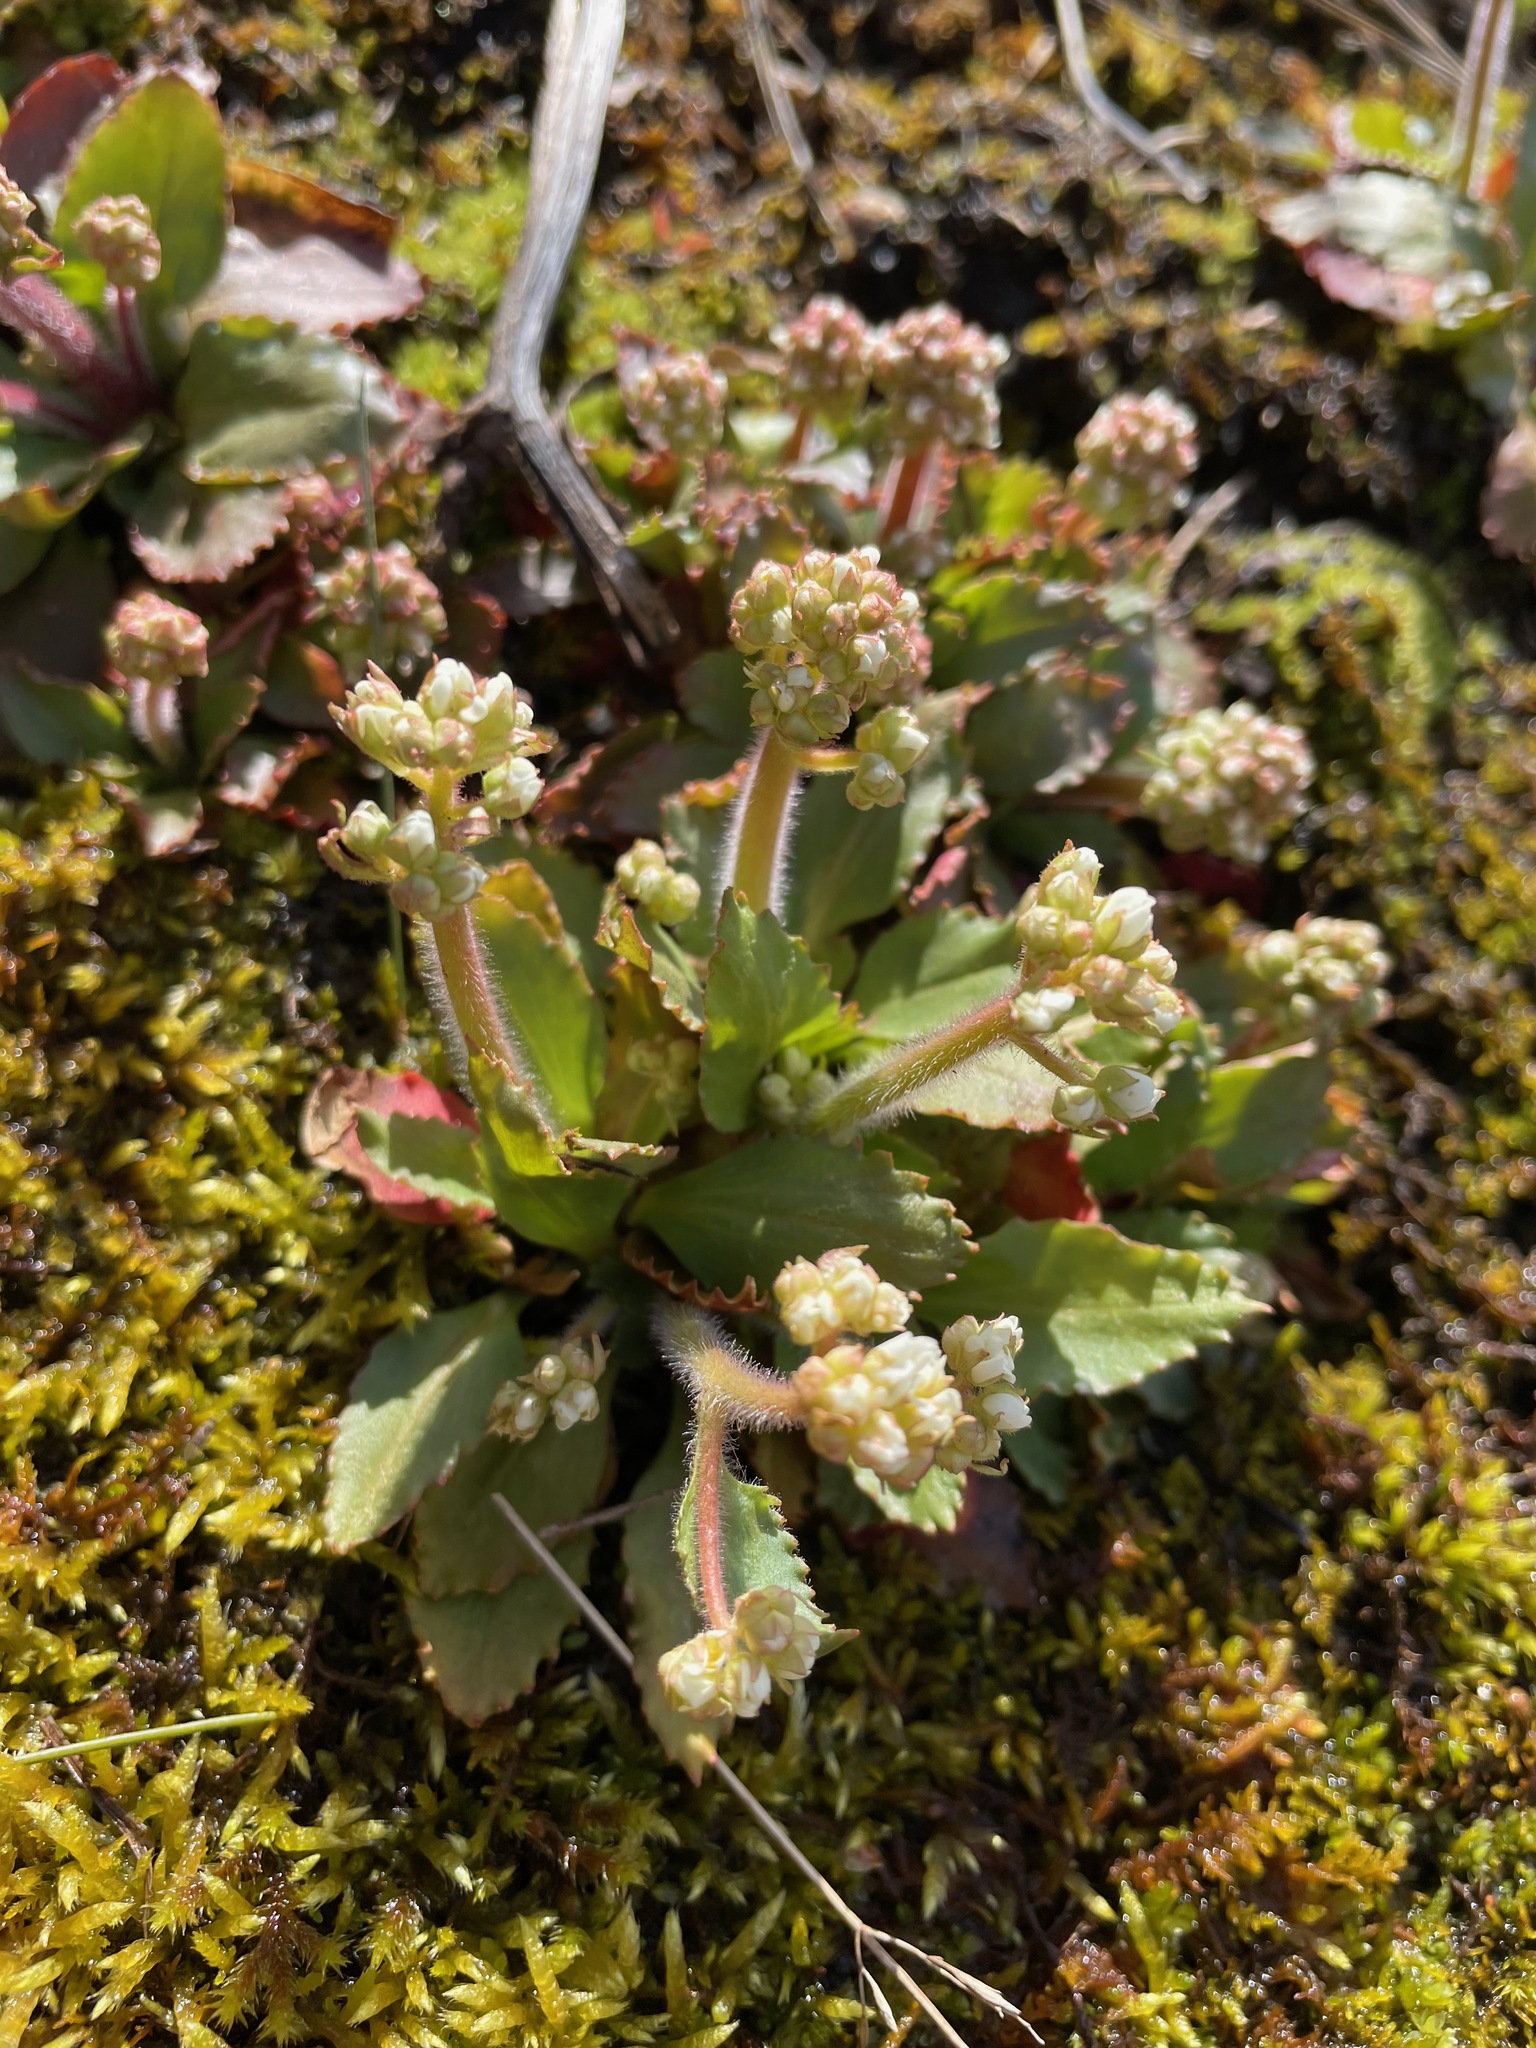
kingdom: Plantae
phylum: Tracheophyta
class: Magnoliopsida
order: Saxifragales
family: Saxifragaceae
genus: Micranthes
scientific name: Micranthes virginiensis
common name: Early saxifrage
